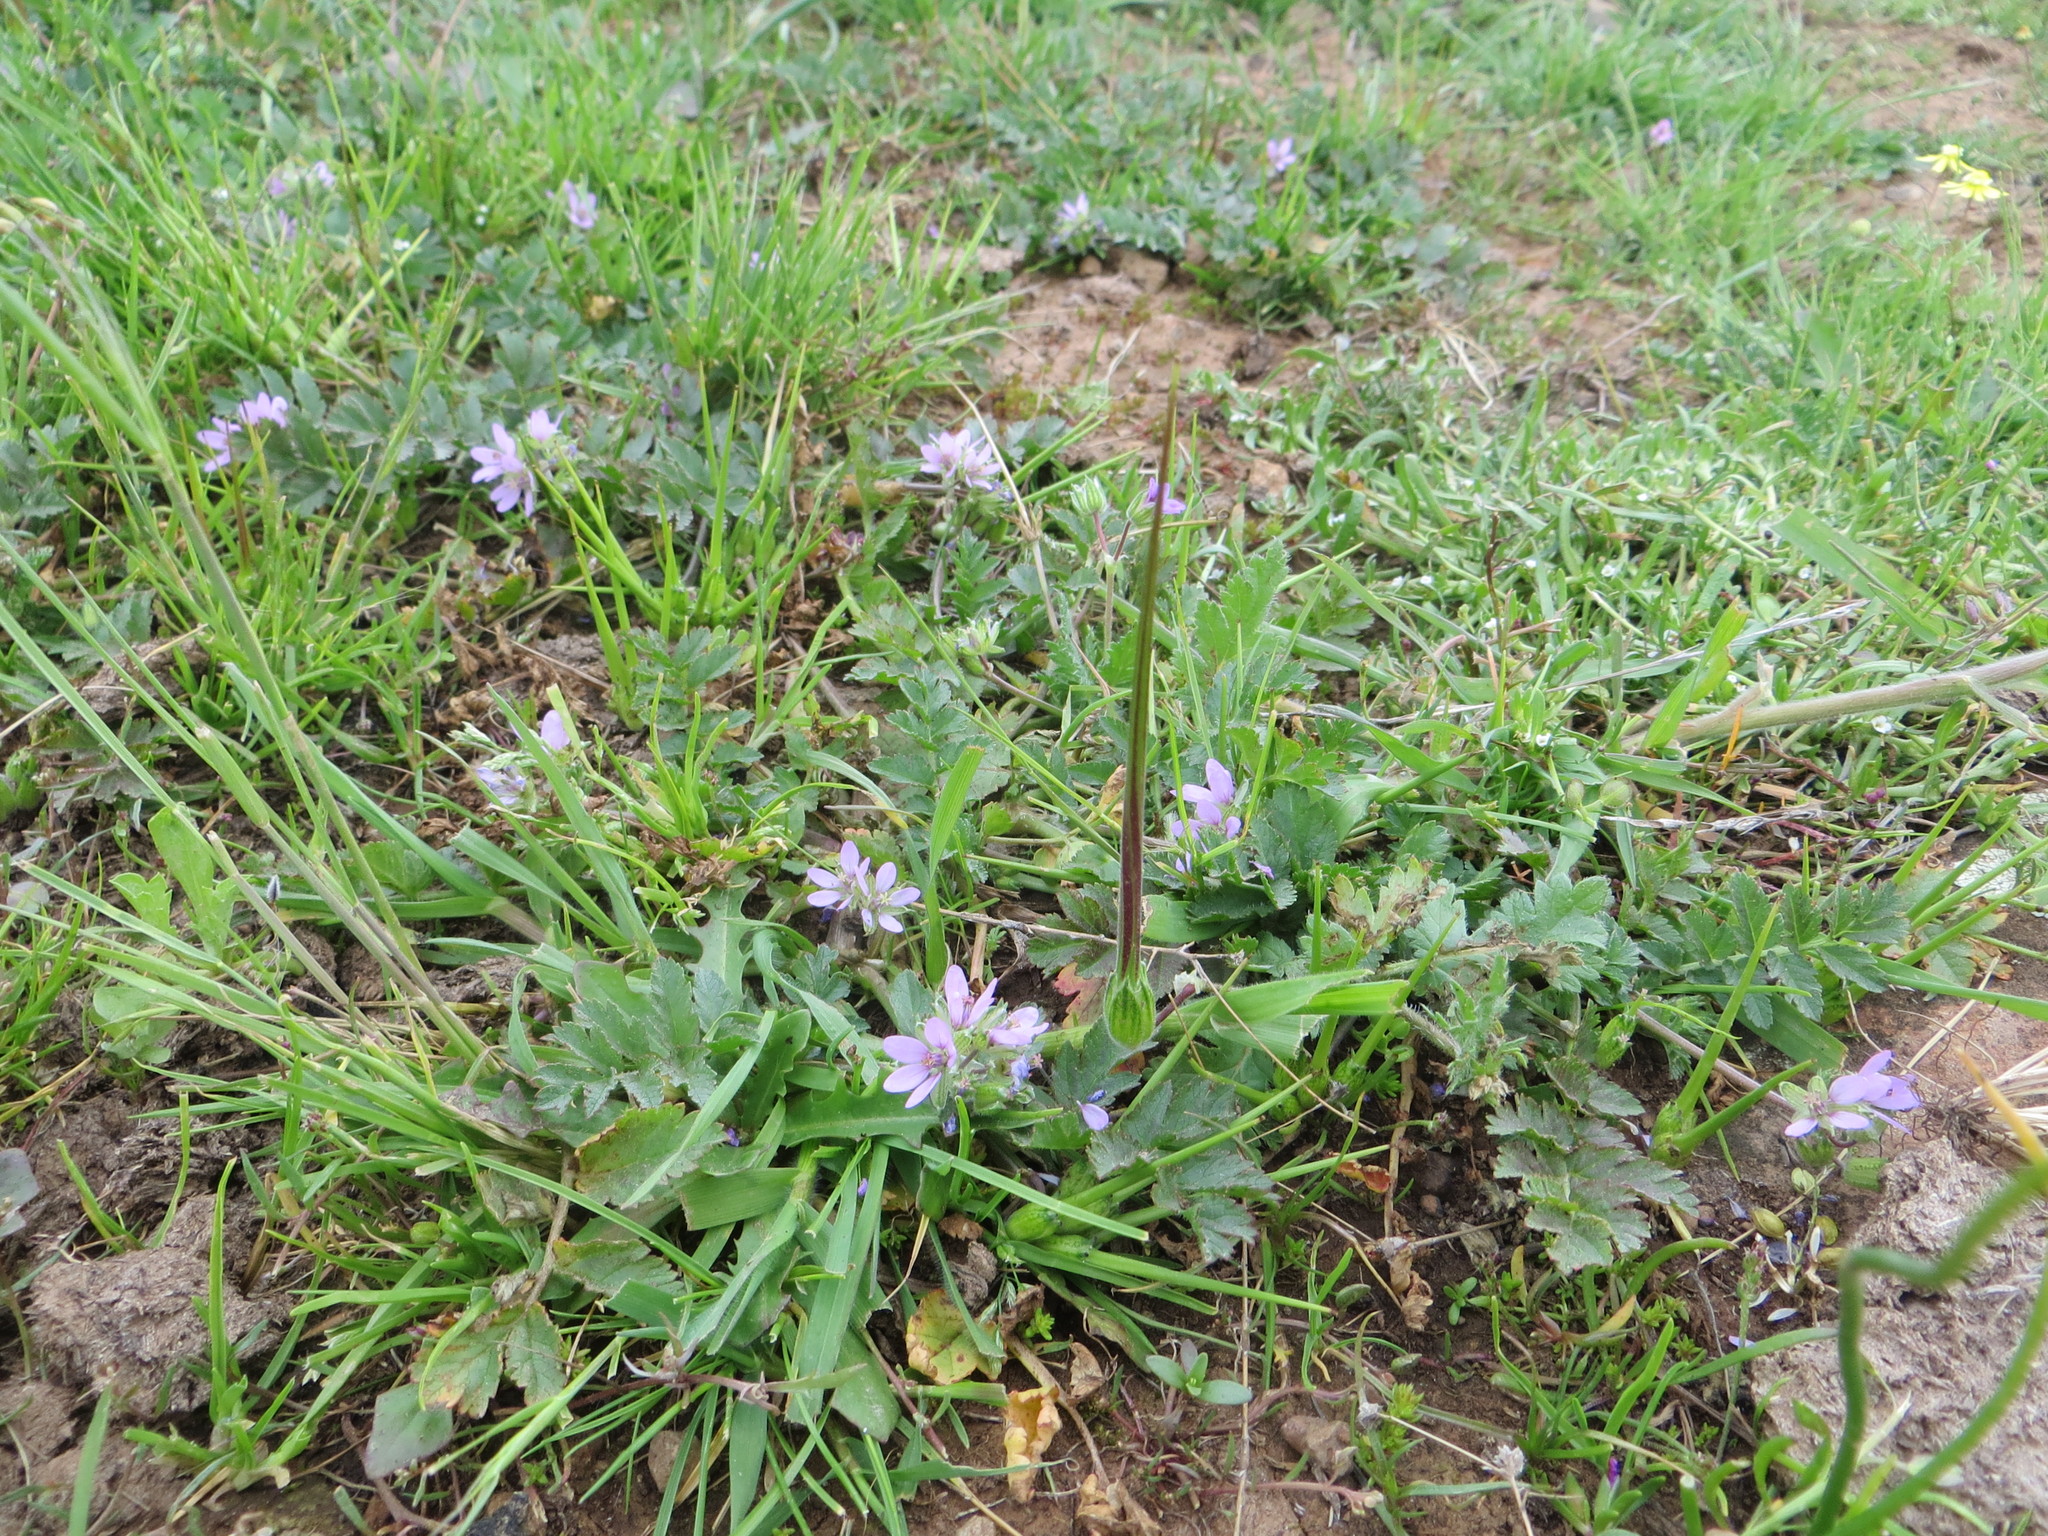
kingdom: Plantae
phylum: Tracheophyta
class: Magnoliopsida
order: Geraniales
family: Geraniaceae
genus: Erodium
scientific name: Erodium moschatum
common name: Musk stork's-bill
